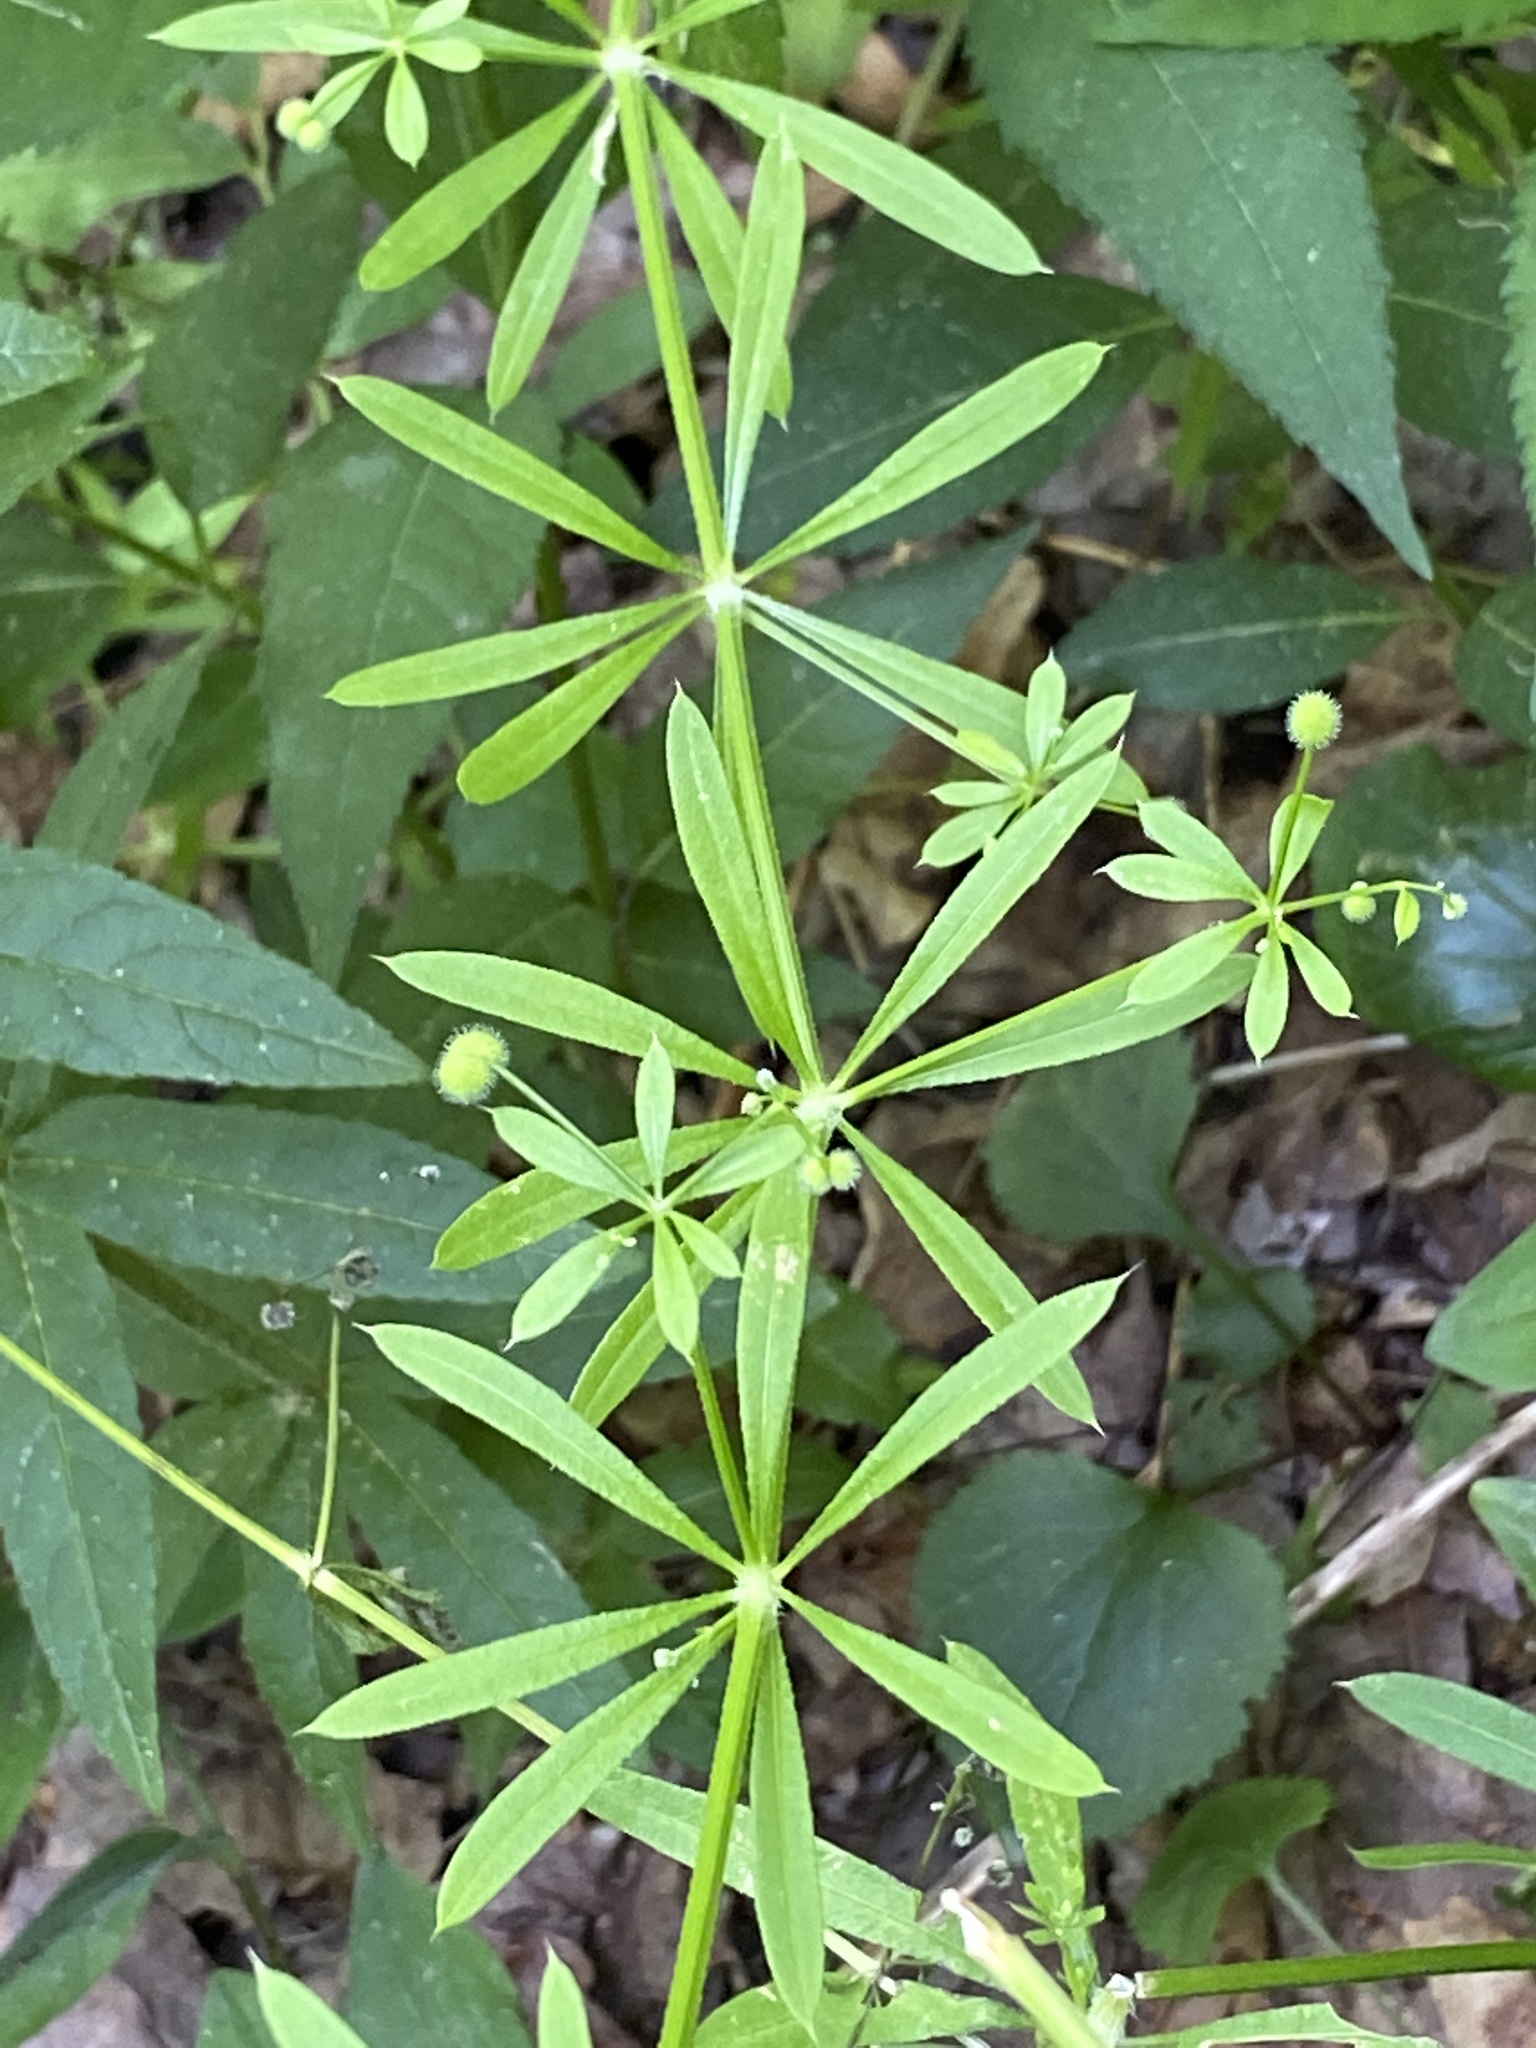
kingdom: Plantae
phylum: Tracheophyta
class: Magnoliopsida
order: Gentianales
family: Rubiaceae
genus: Galium
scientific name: Galium aparine
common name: Cleavers
